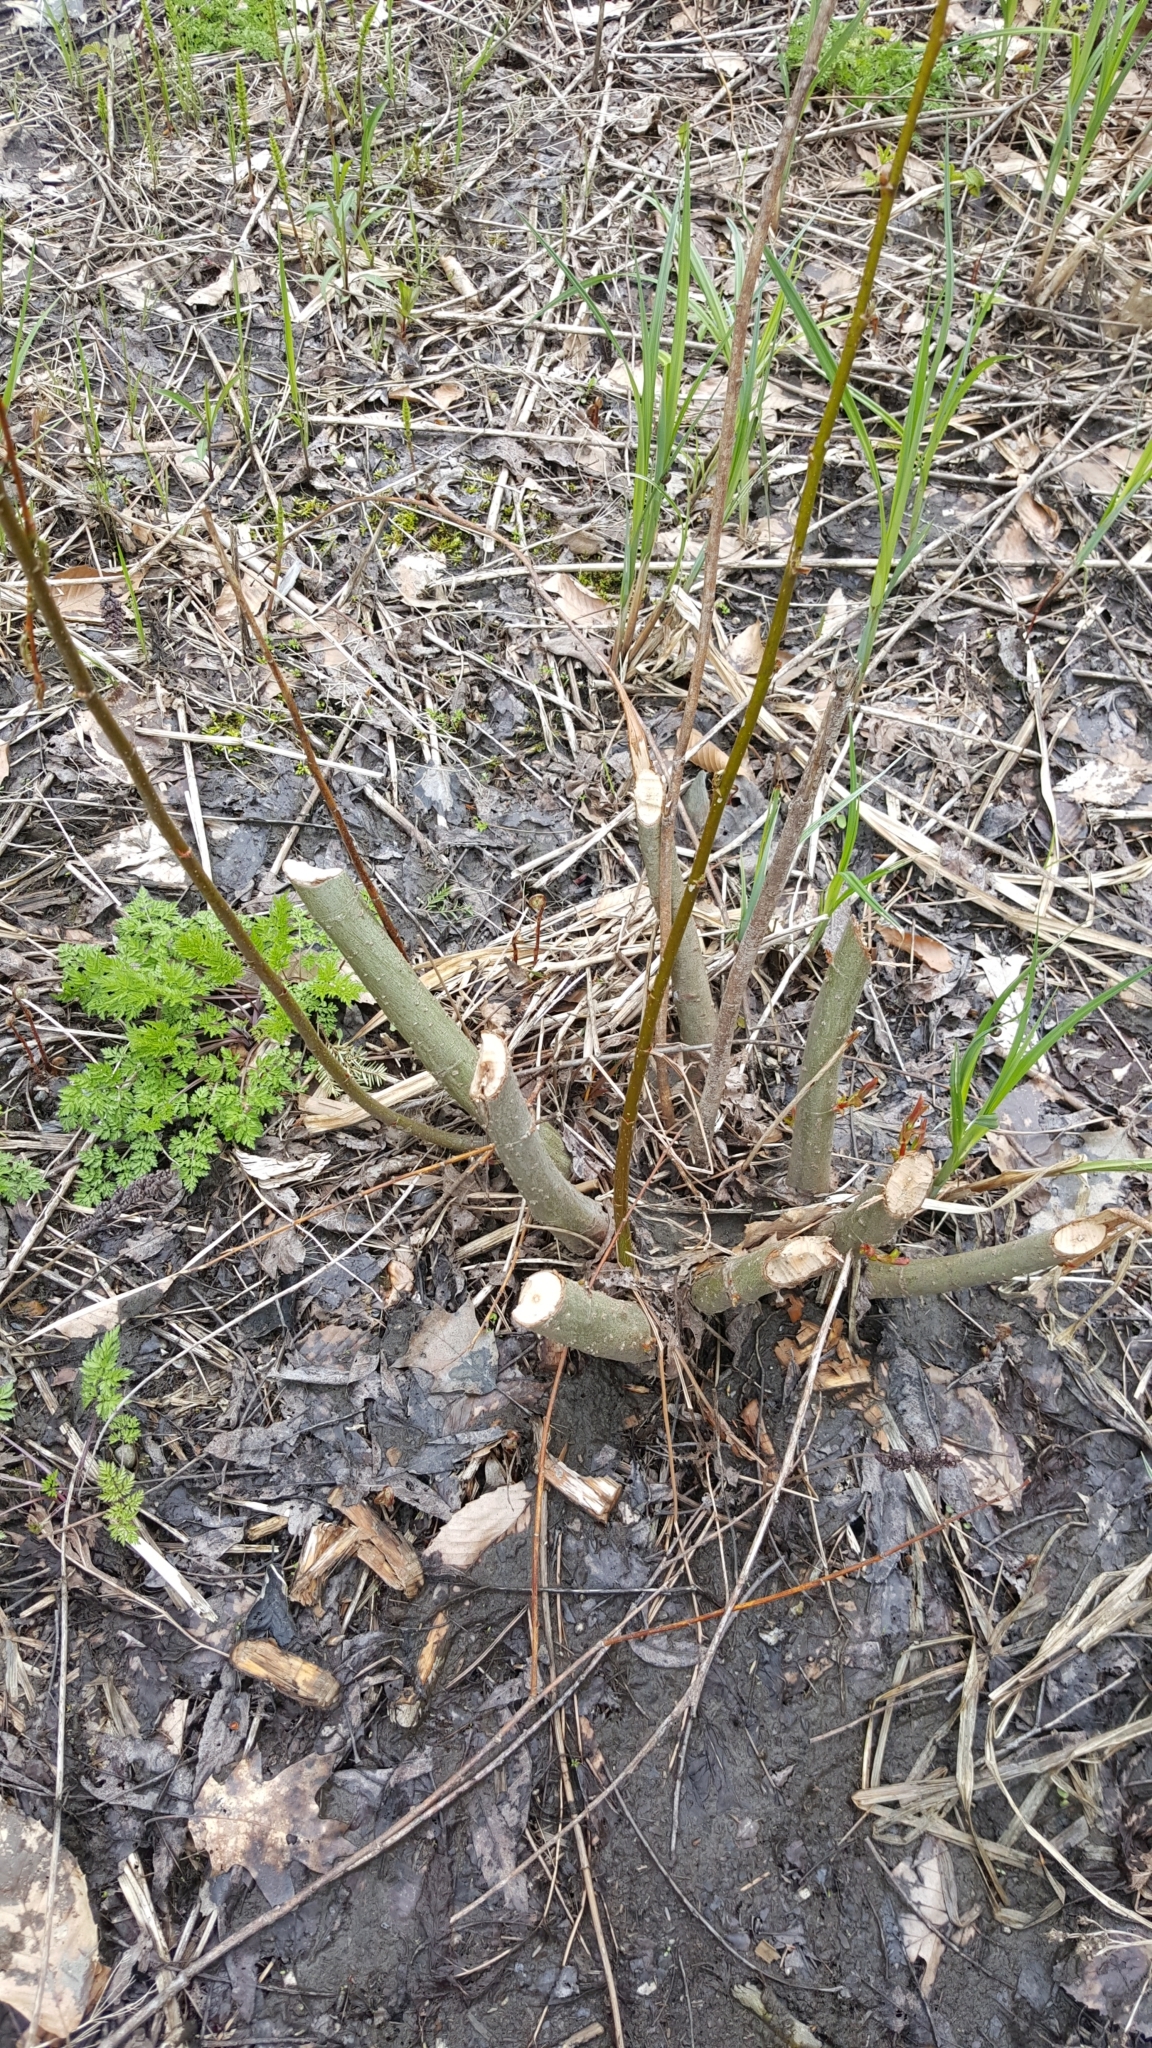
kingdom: Animalia
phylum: Chordata
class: Mammalia
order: Rodentia
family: Castoridae
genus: Castor
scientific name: Castor canadensis
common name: American beaver
